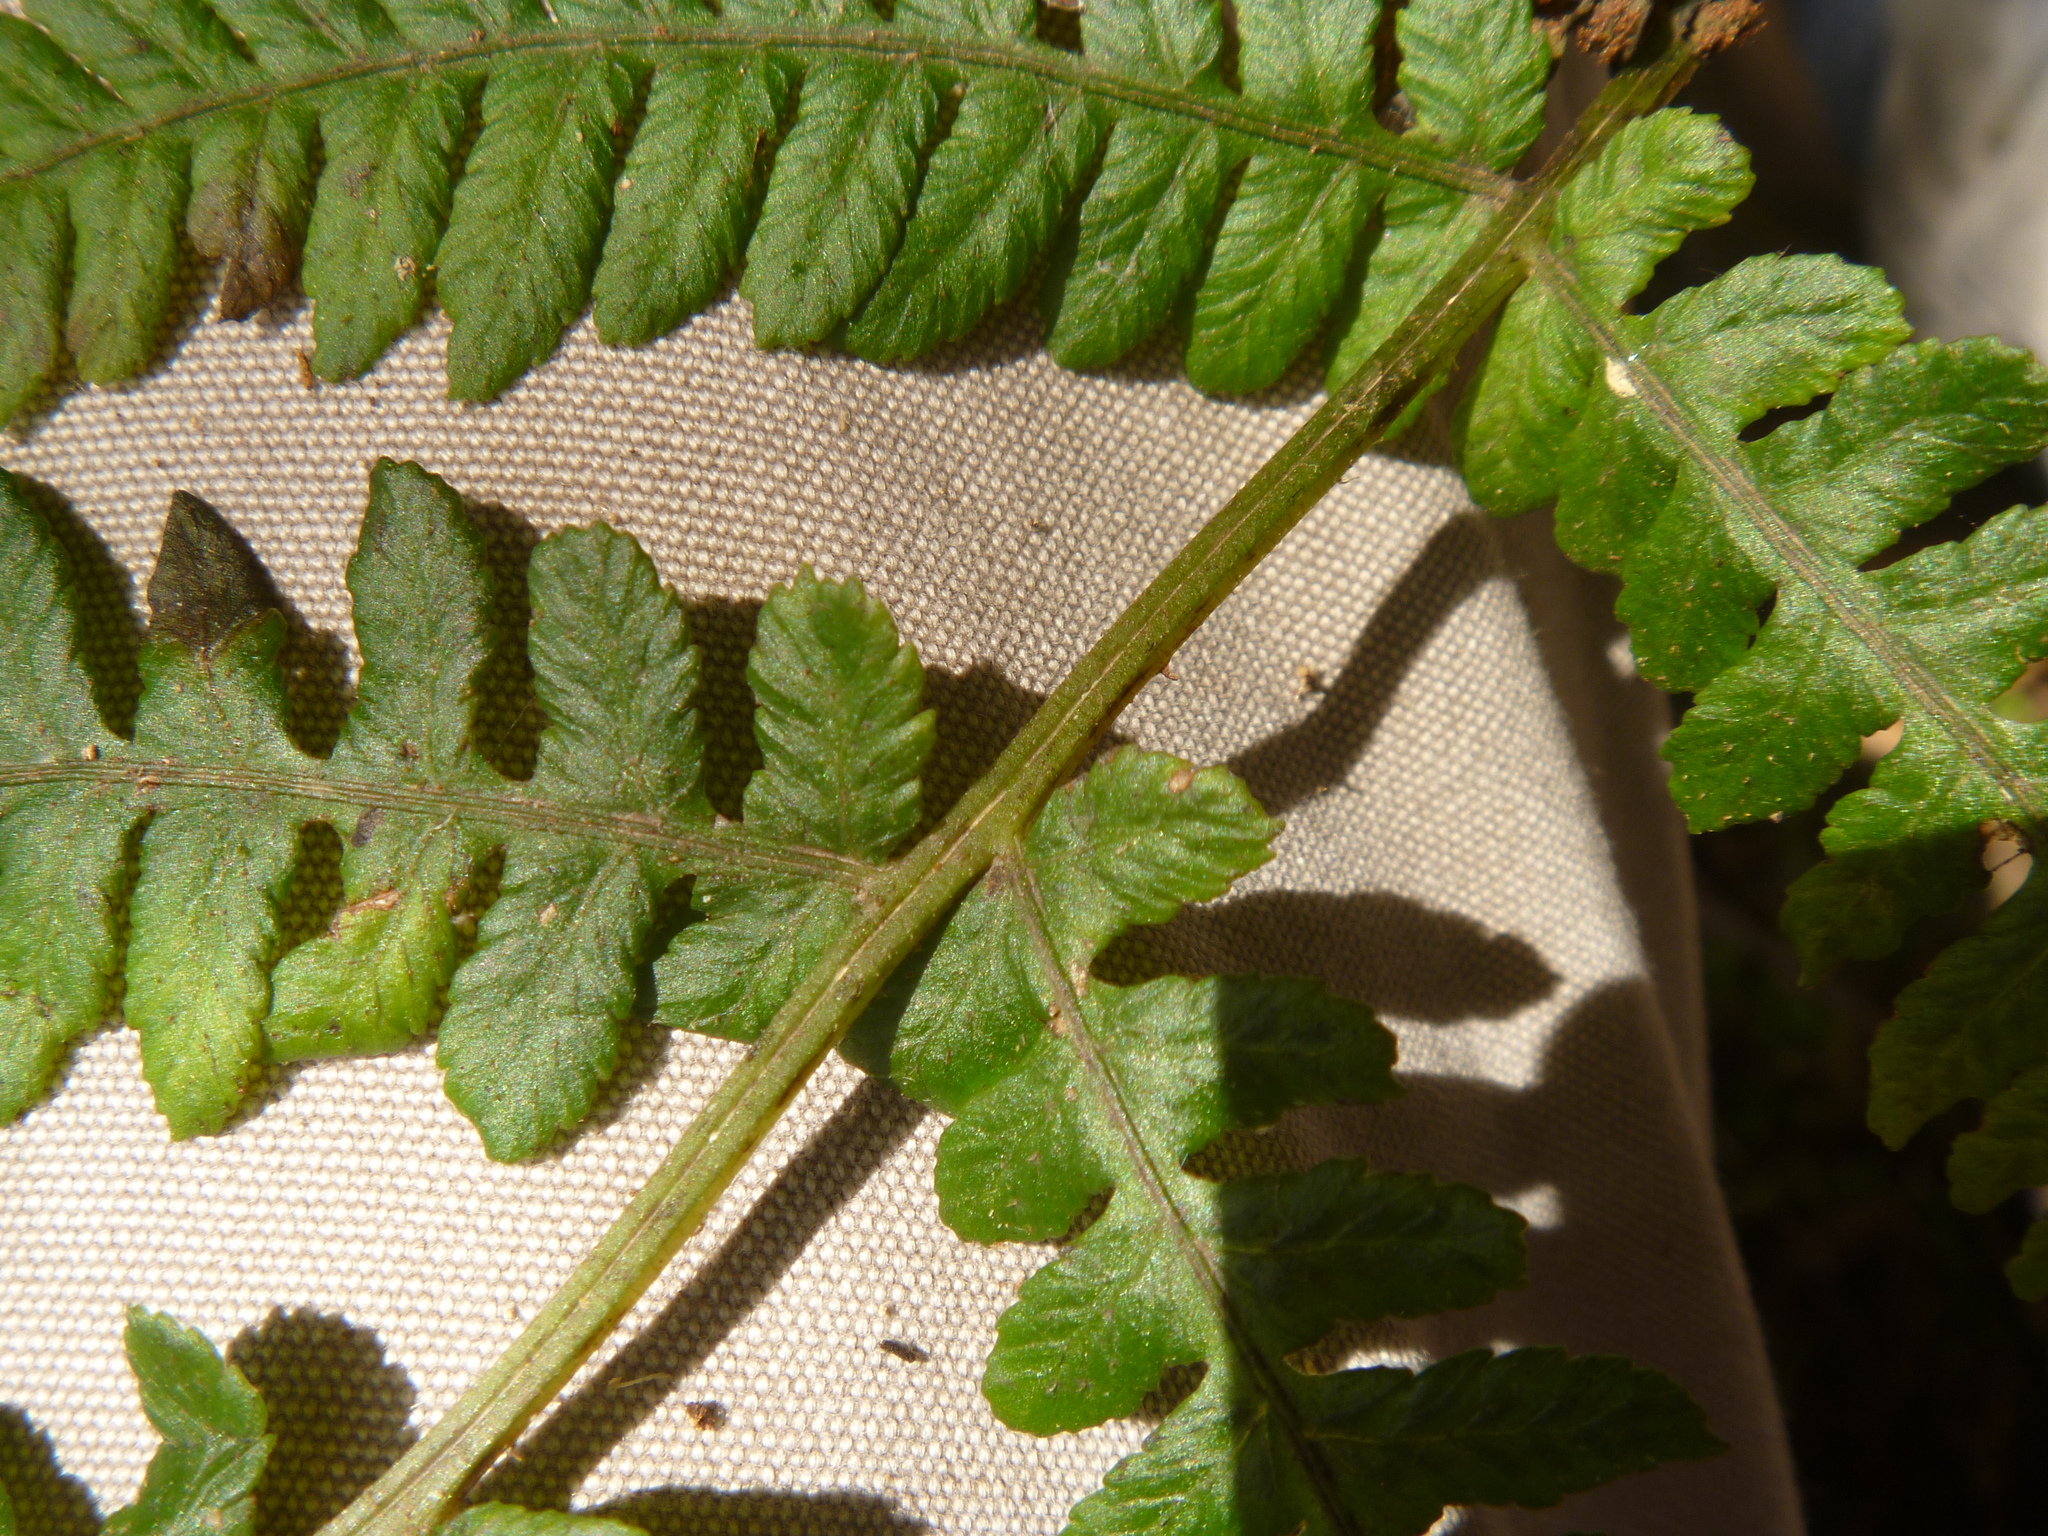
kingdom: Plantae
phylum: Tracheophyta
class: Polypodiopsida
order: Polypodiales
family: Athyriaceae
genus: Diplazium
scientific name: Diplazium congruum
